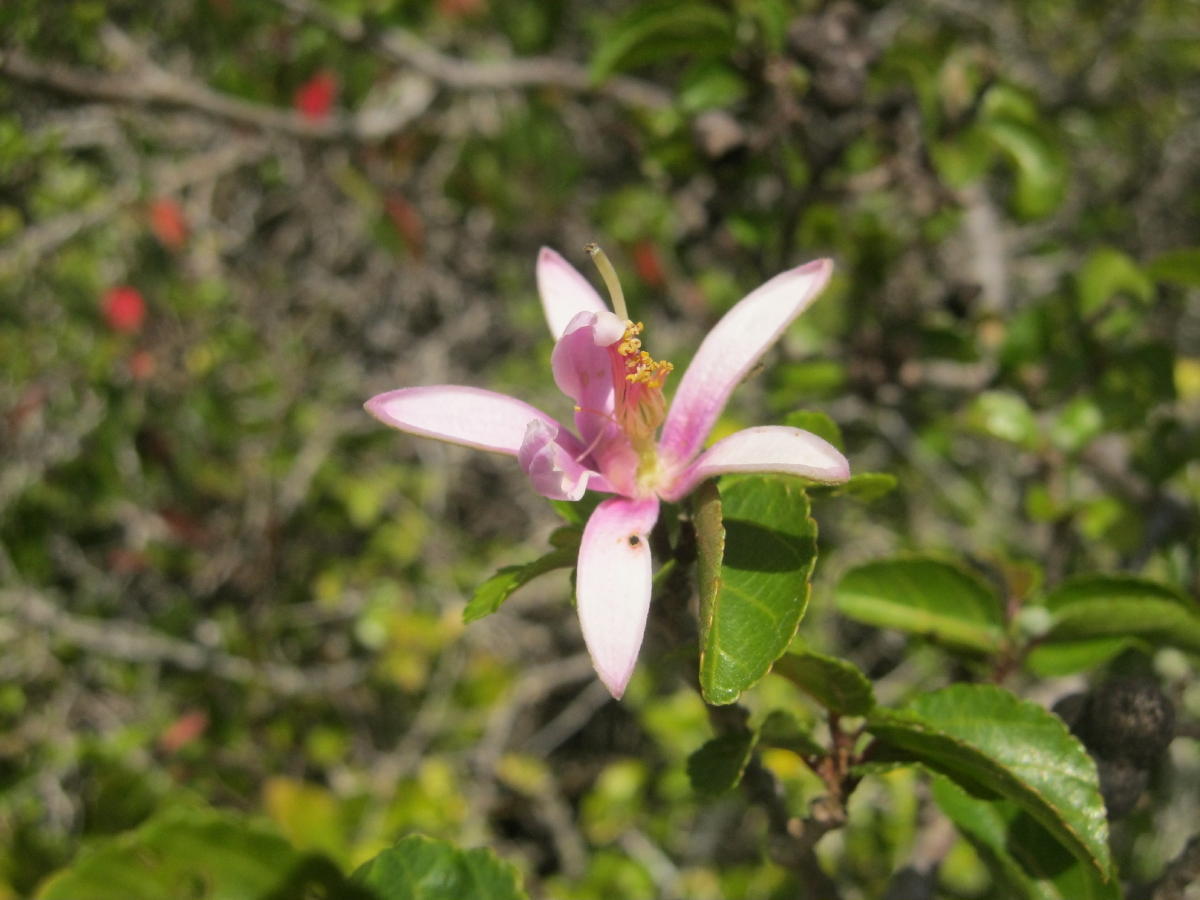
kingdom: Plantae
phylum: Tracheophyta
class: Magnoliopsida
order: Malvales
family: Malvaceae
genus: Grewia
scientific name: Grewia occidentalis
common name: Crossberry
